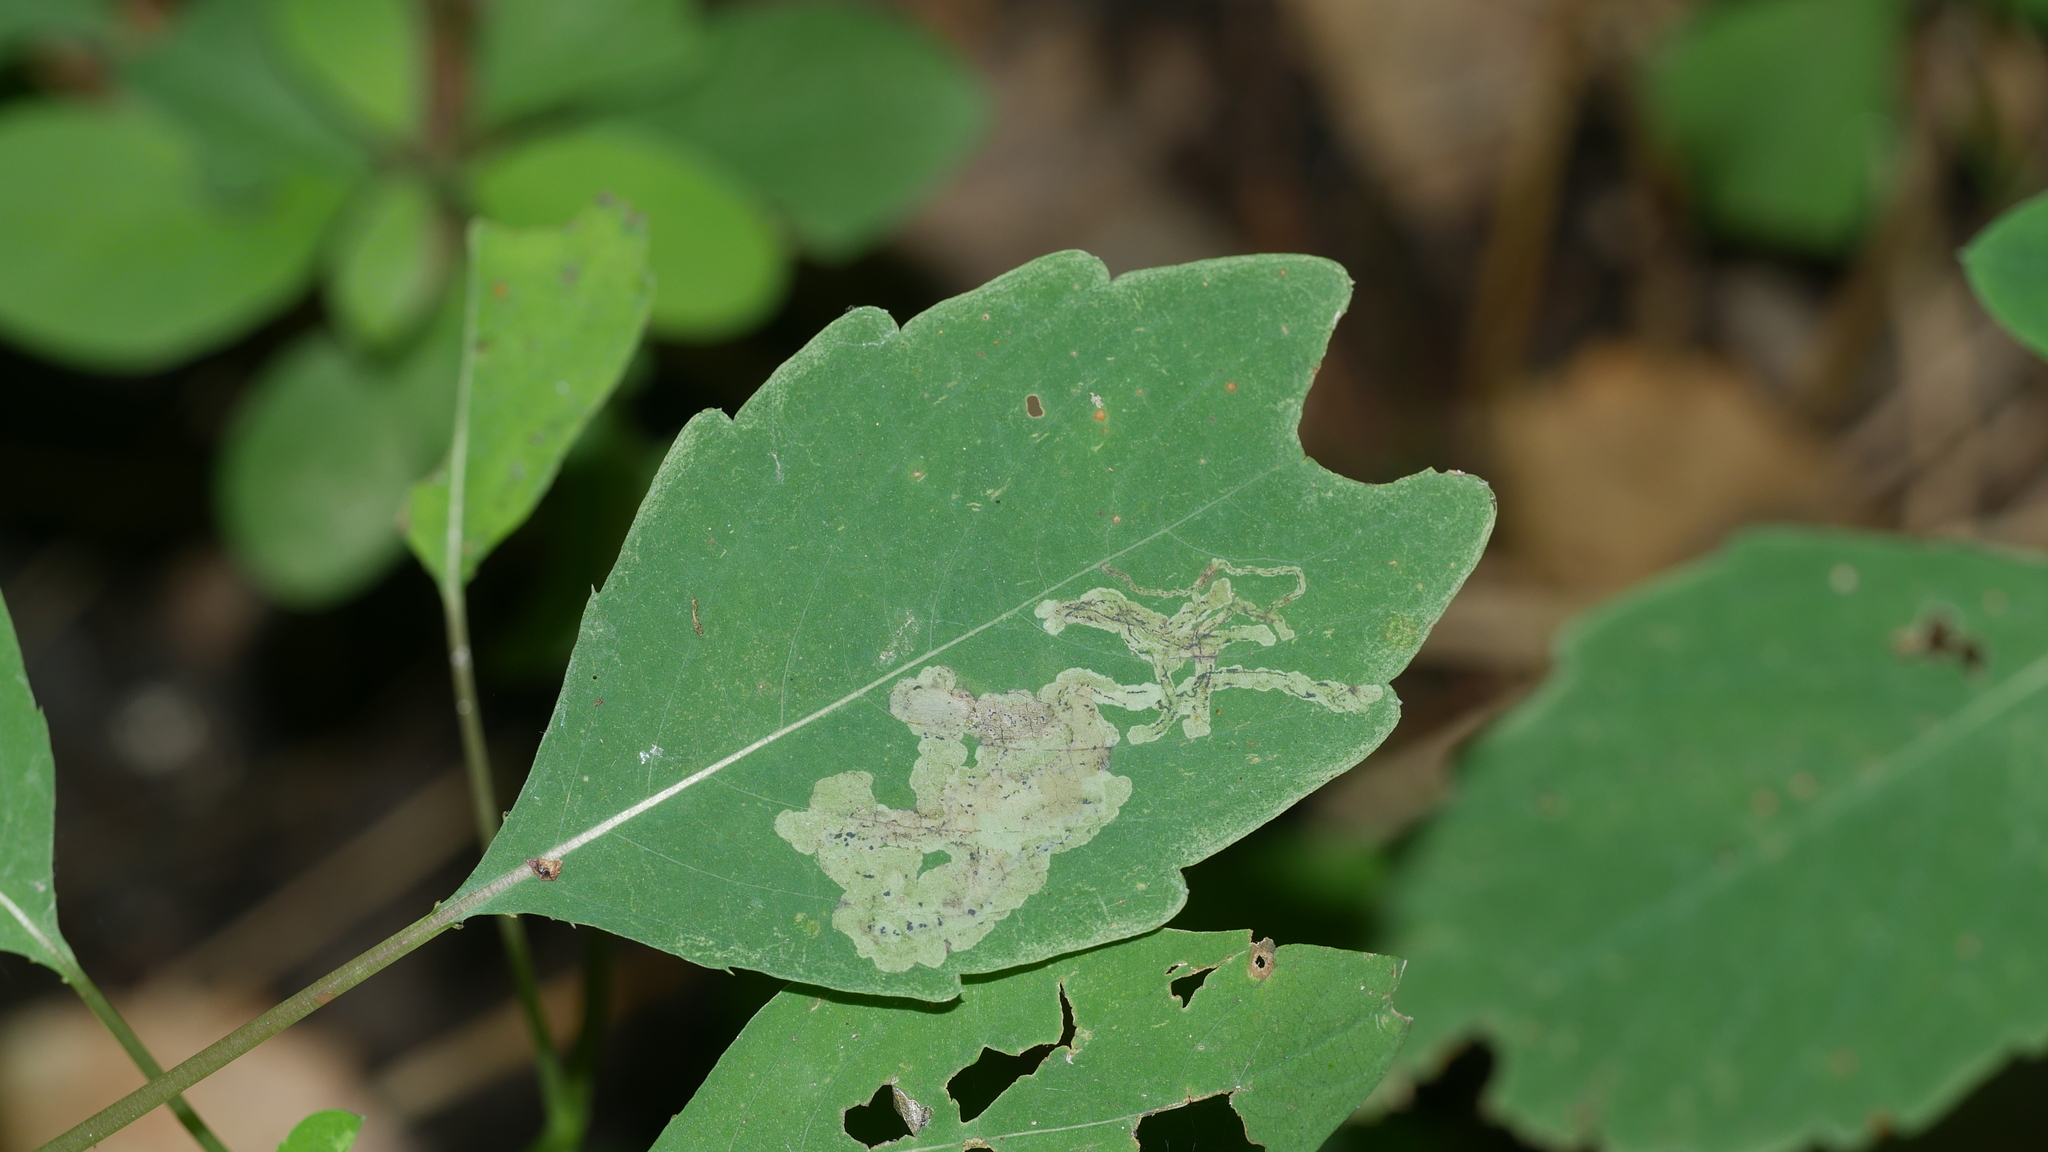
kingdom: Animalia
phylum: Arthropoda
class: Insecta
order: Diptera
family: Agromyzidae
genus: Phytoliriomyza
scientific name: Phytoliriomyza melampyga
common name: Jewelweed leaf-miner fly
